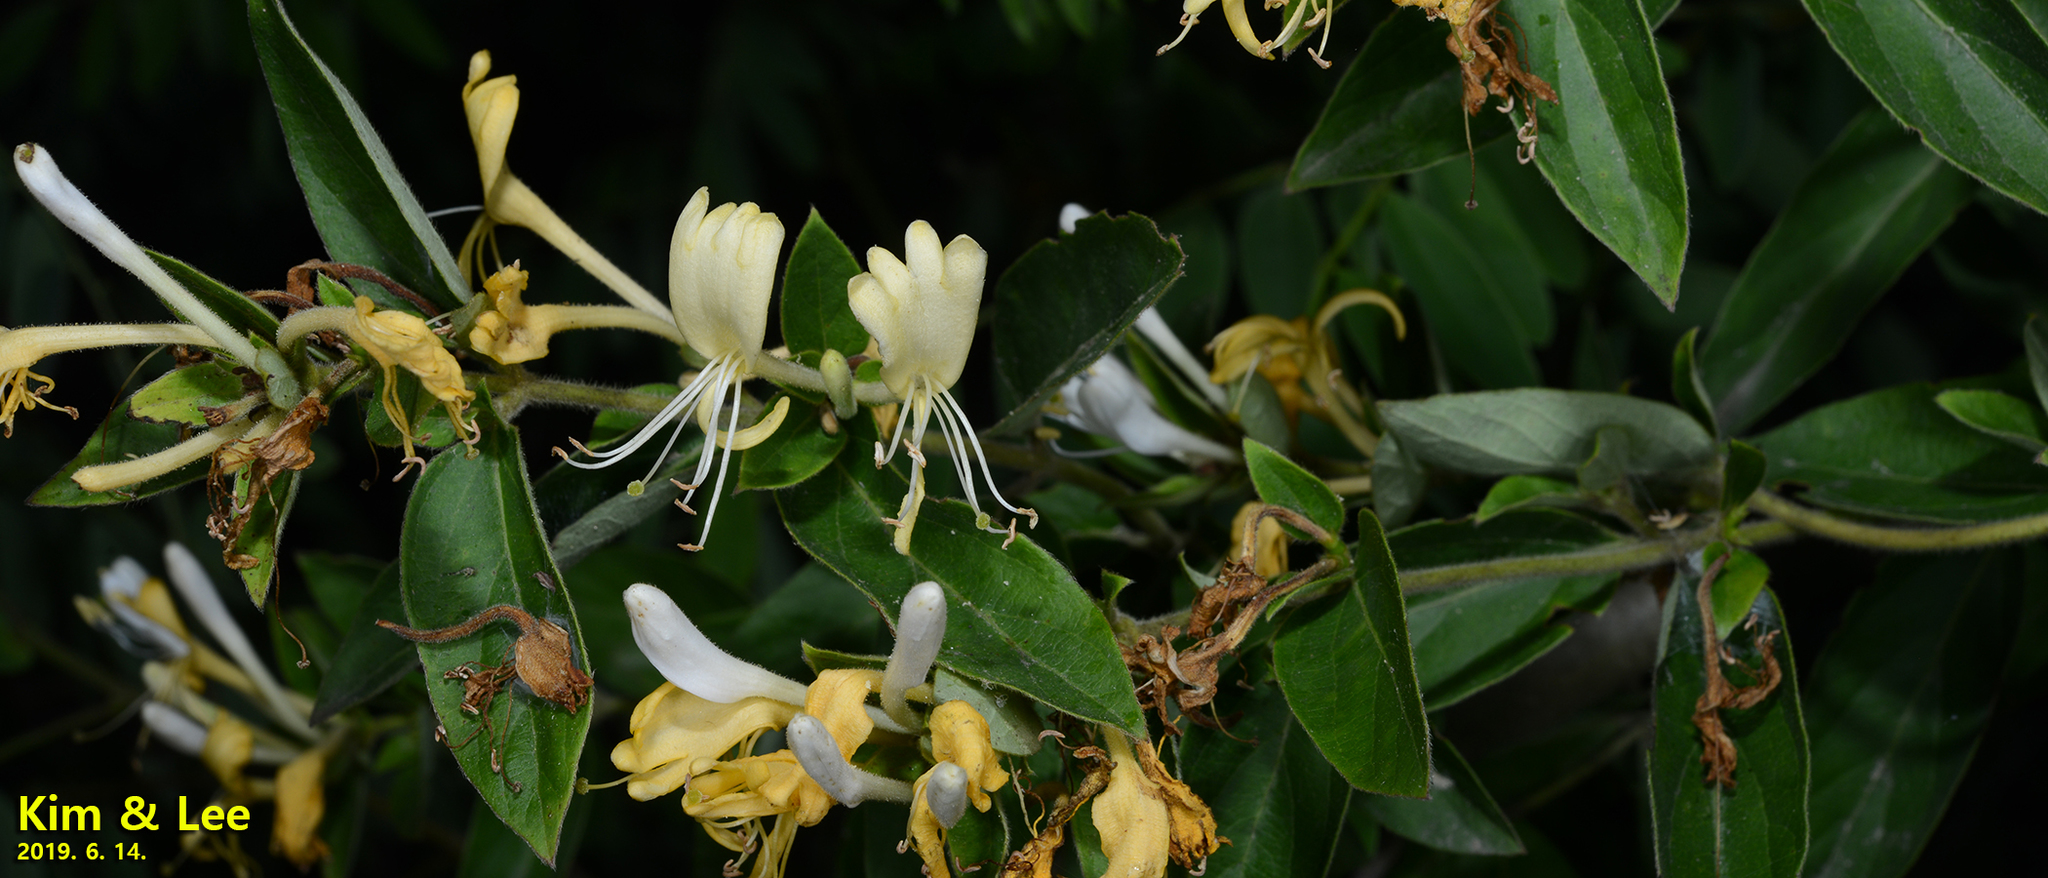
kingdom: Plantae
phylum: Tracheophyta
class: Magnoliopsida
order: Dipsacales
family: Caprifoliaceae
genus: Lonicera
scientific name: Lonicera japonica
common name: Japanese honeysuckle
